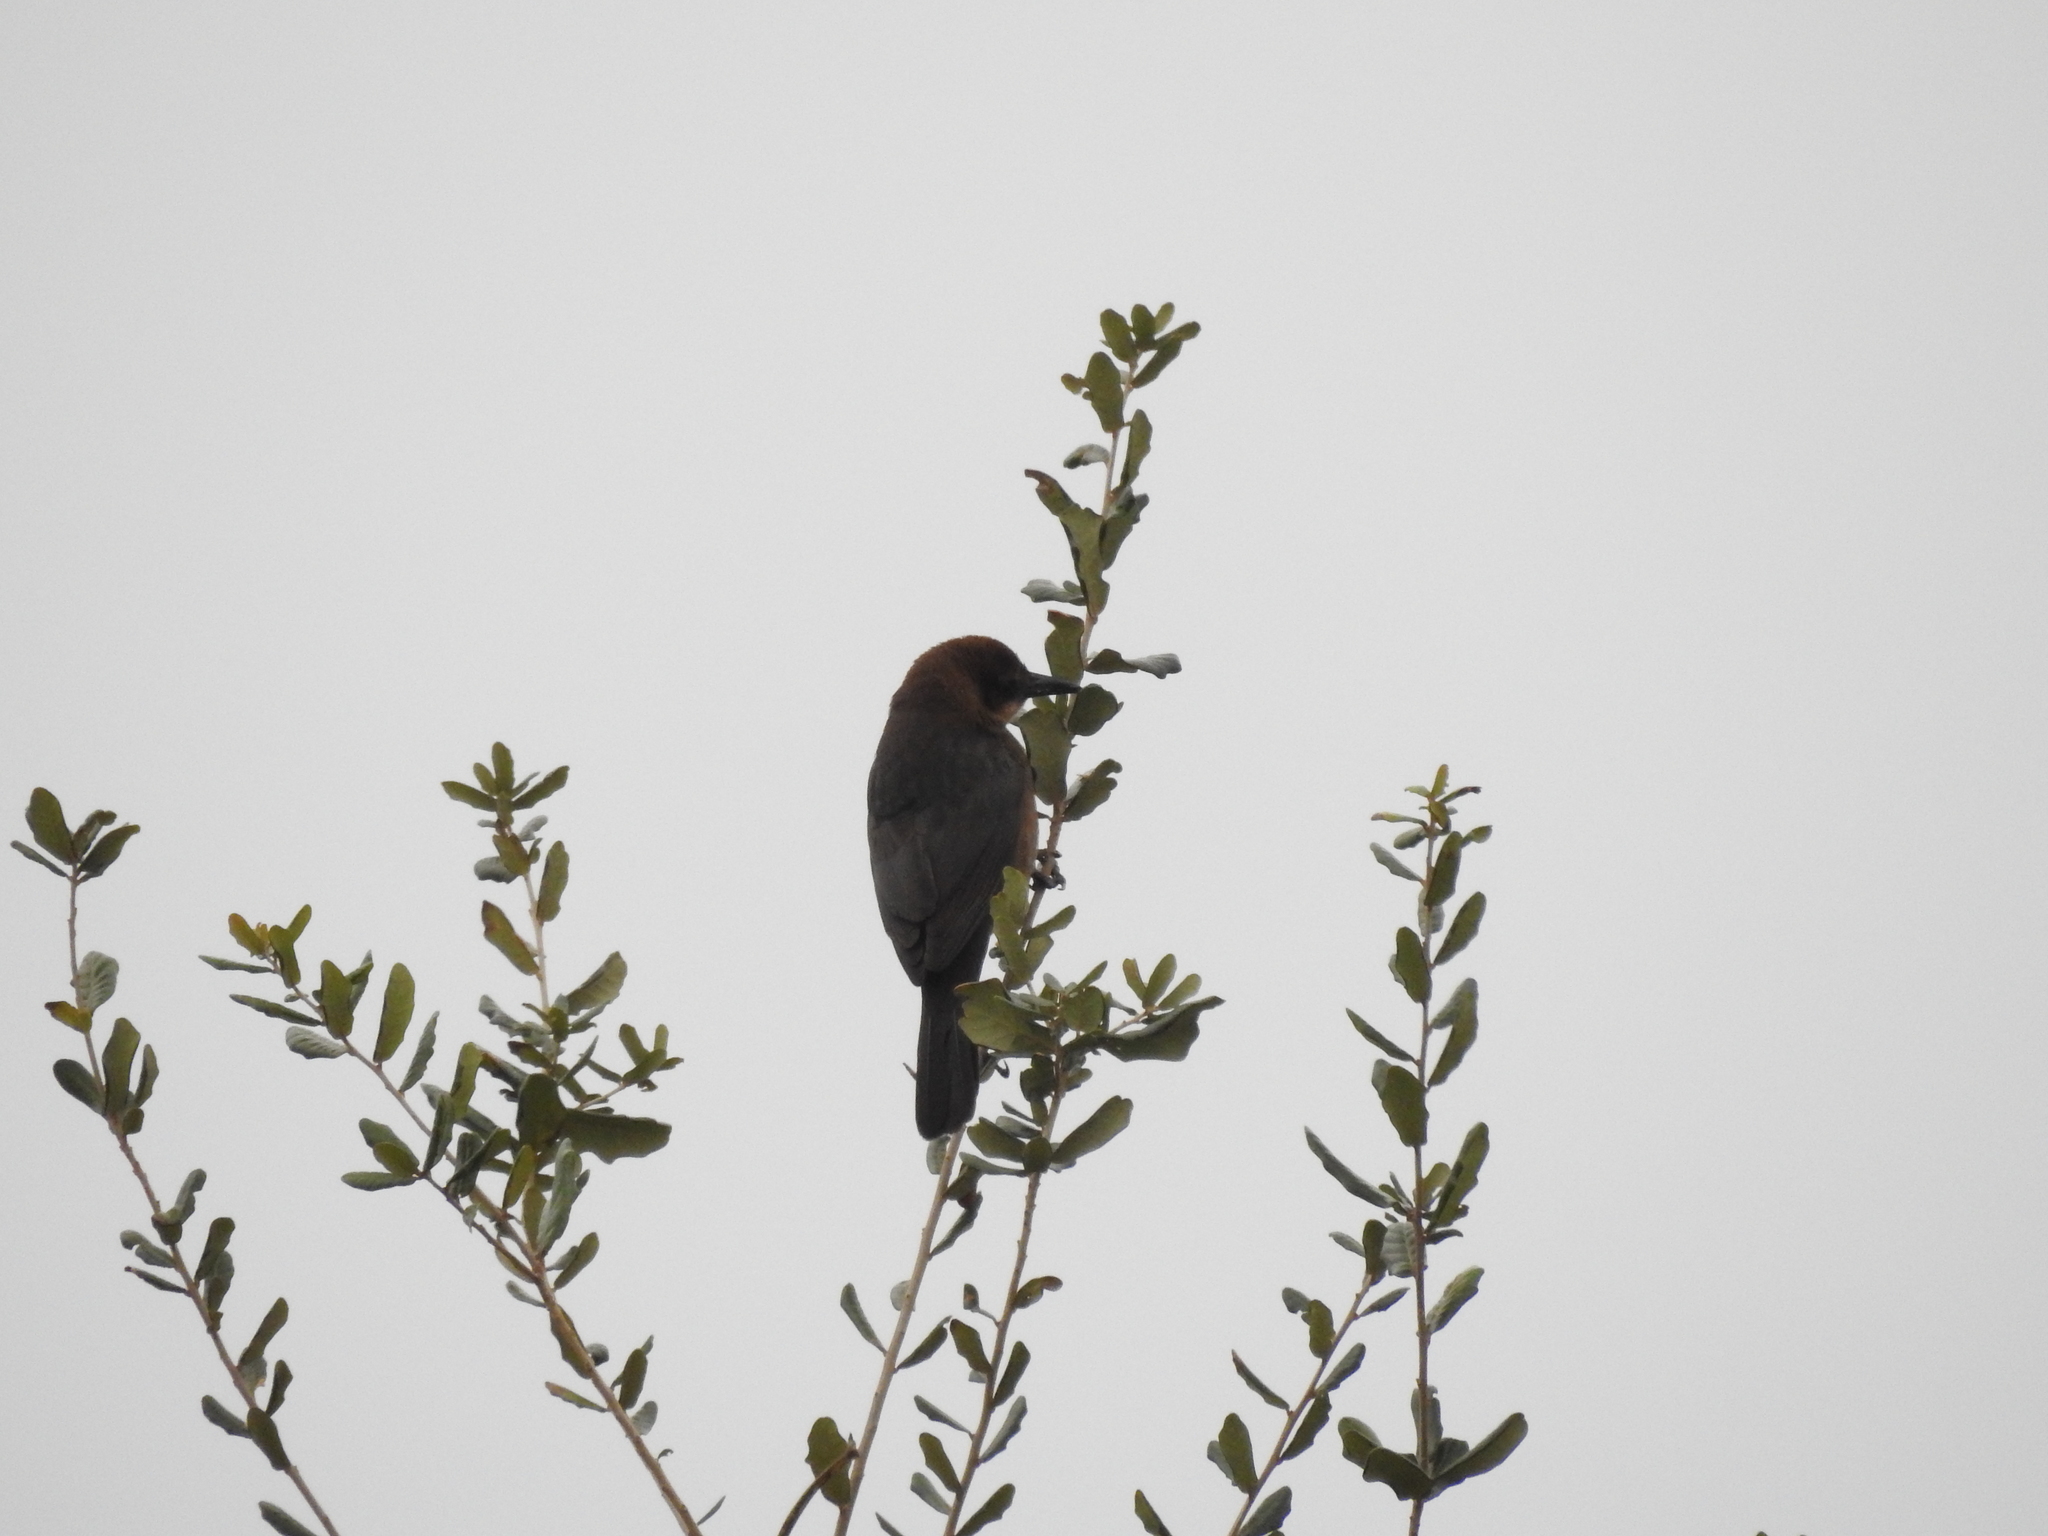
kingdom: Animalia
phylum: Chordata
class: Aves
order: Passeriformes
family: Icteridae
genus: Quiscalus
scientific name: Quiscalus major
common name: Boat-tailed grackle
